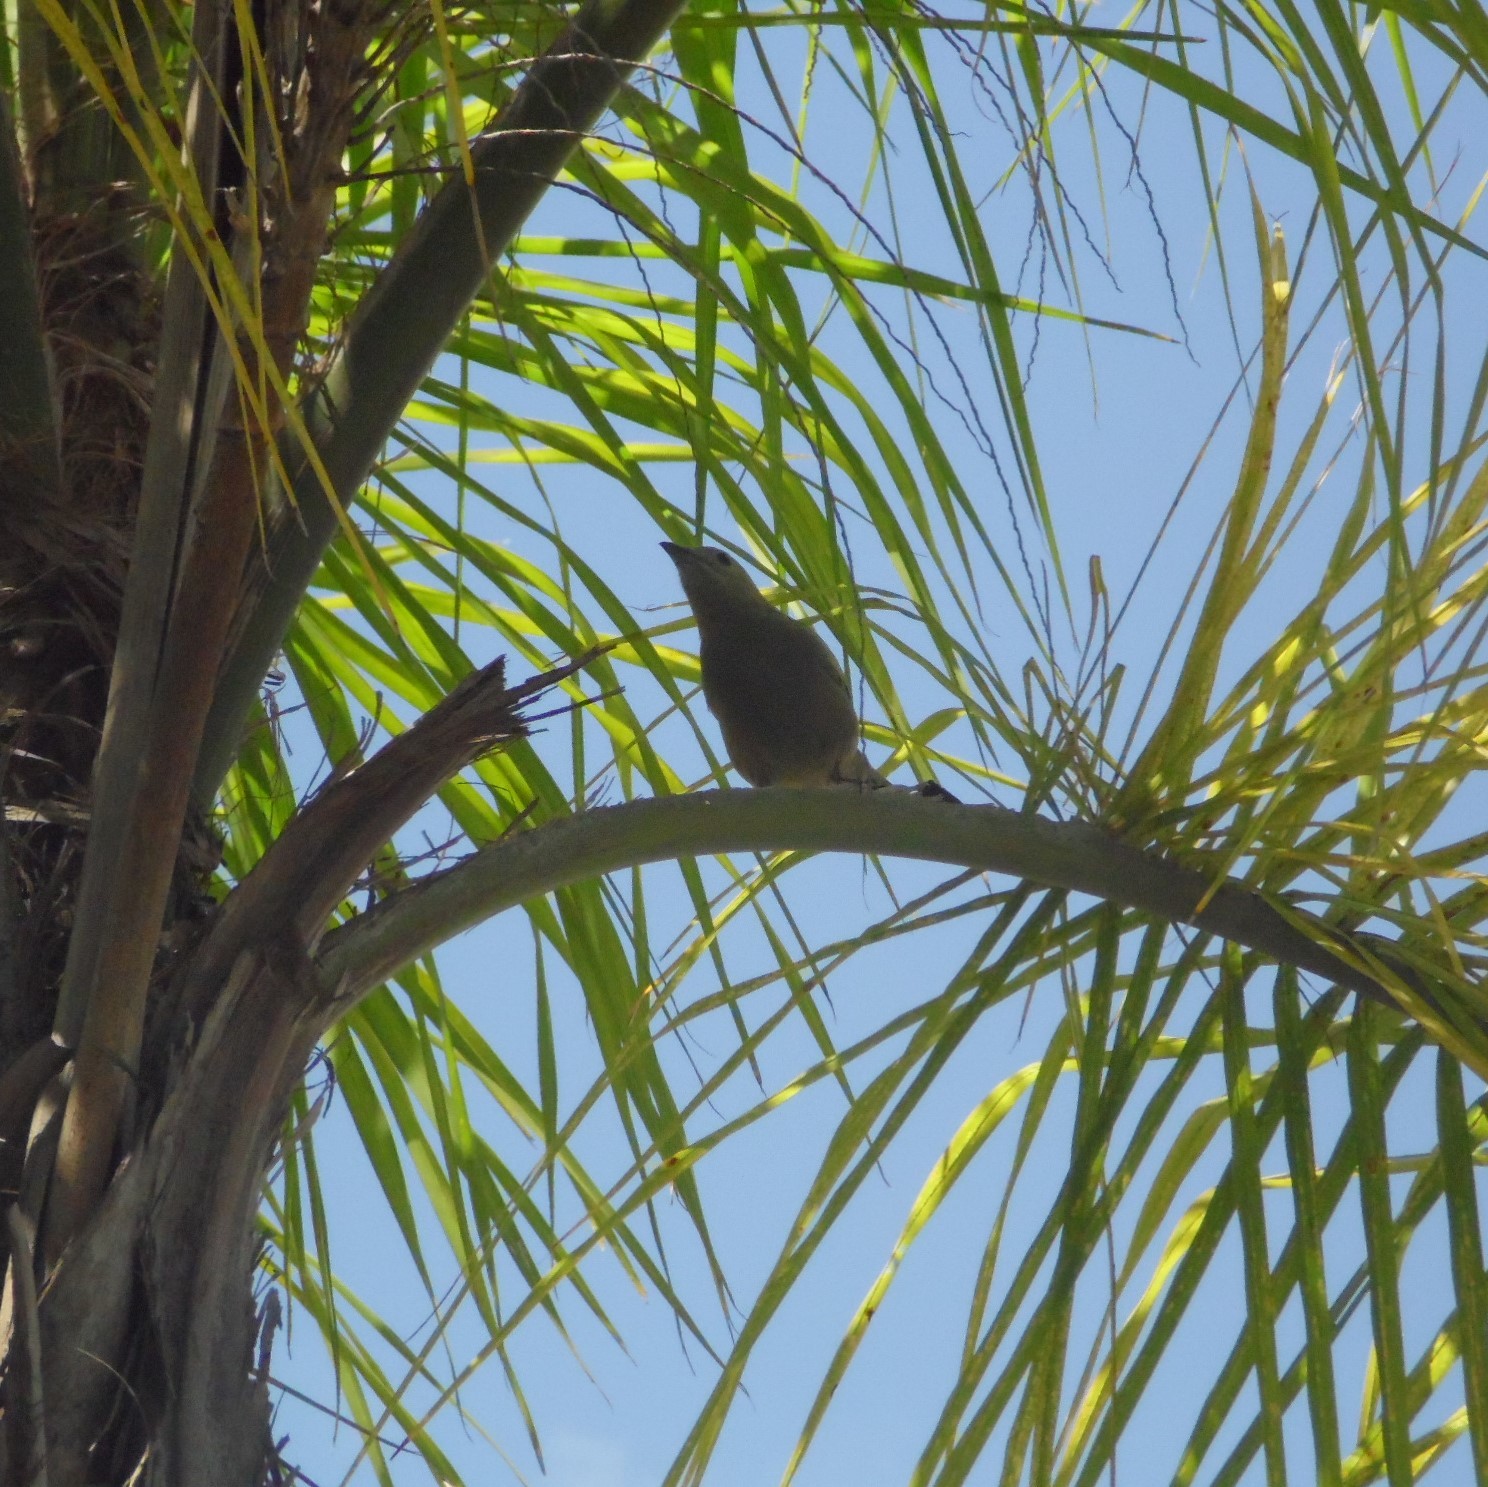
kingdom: Animalia
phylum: Chordata
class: Aves
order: Passeriformes
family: Thraupidae
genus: Thraupis
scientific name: Thraupis palmarum
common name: Palm tanager
